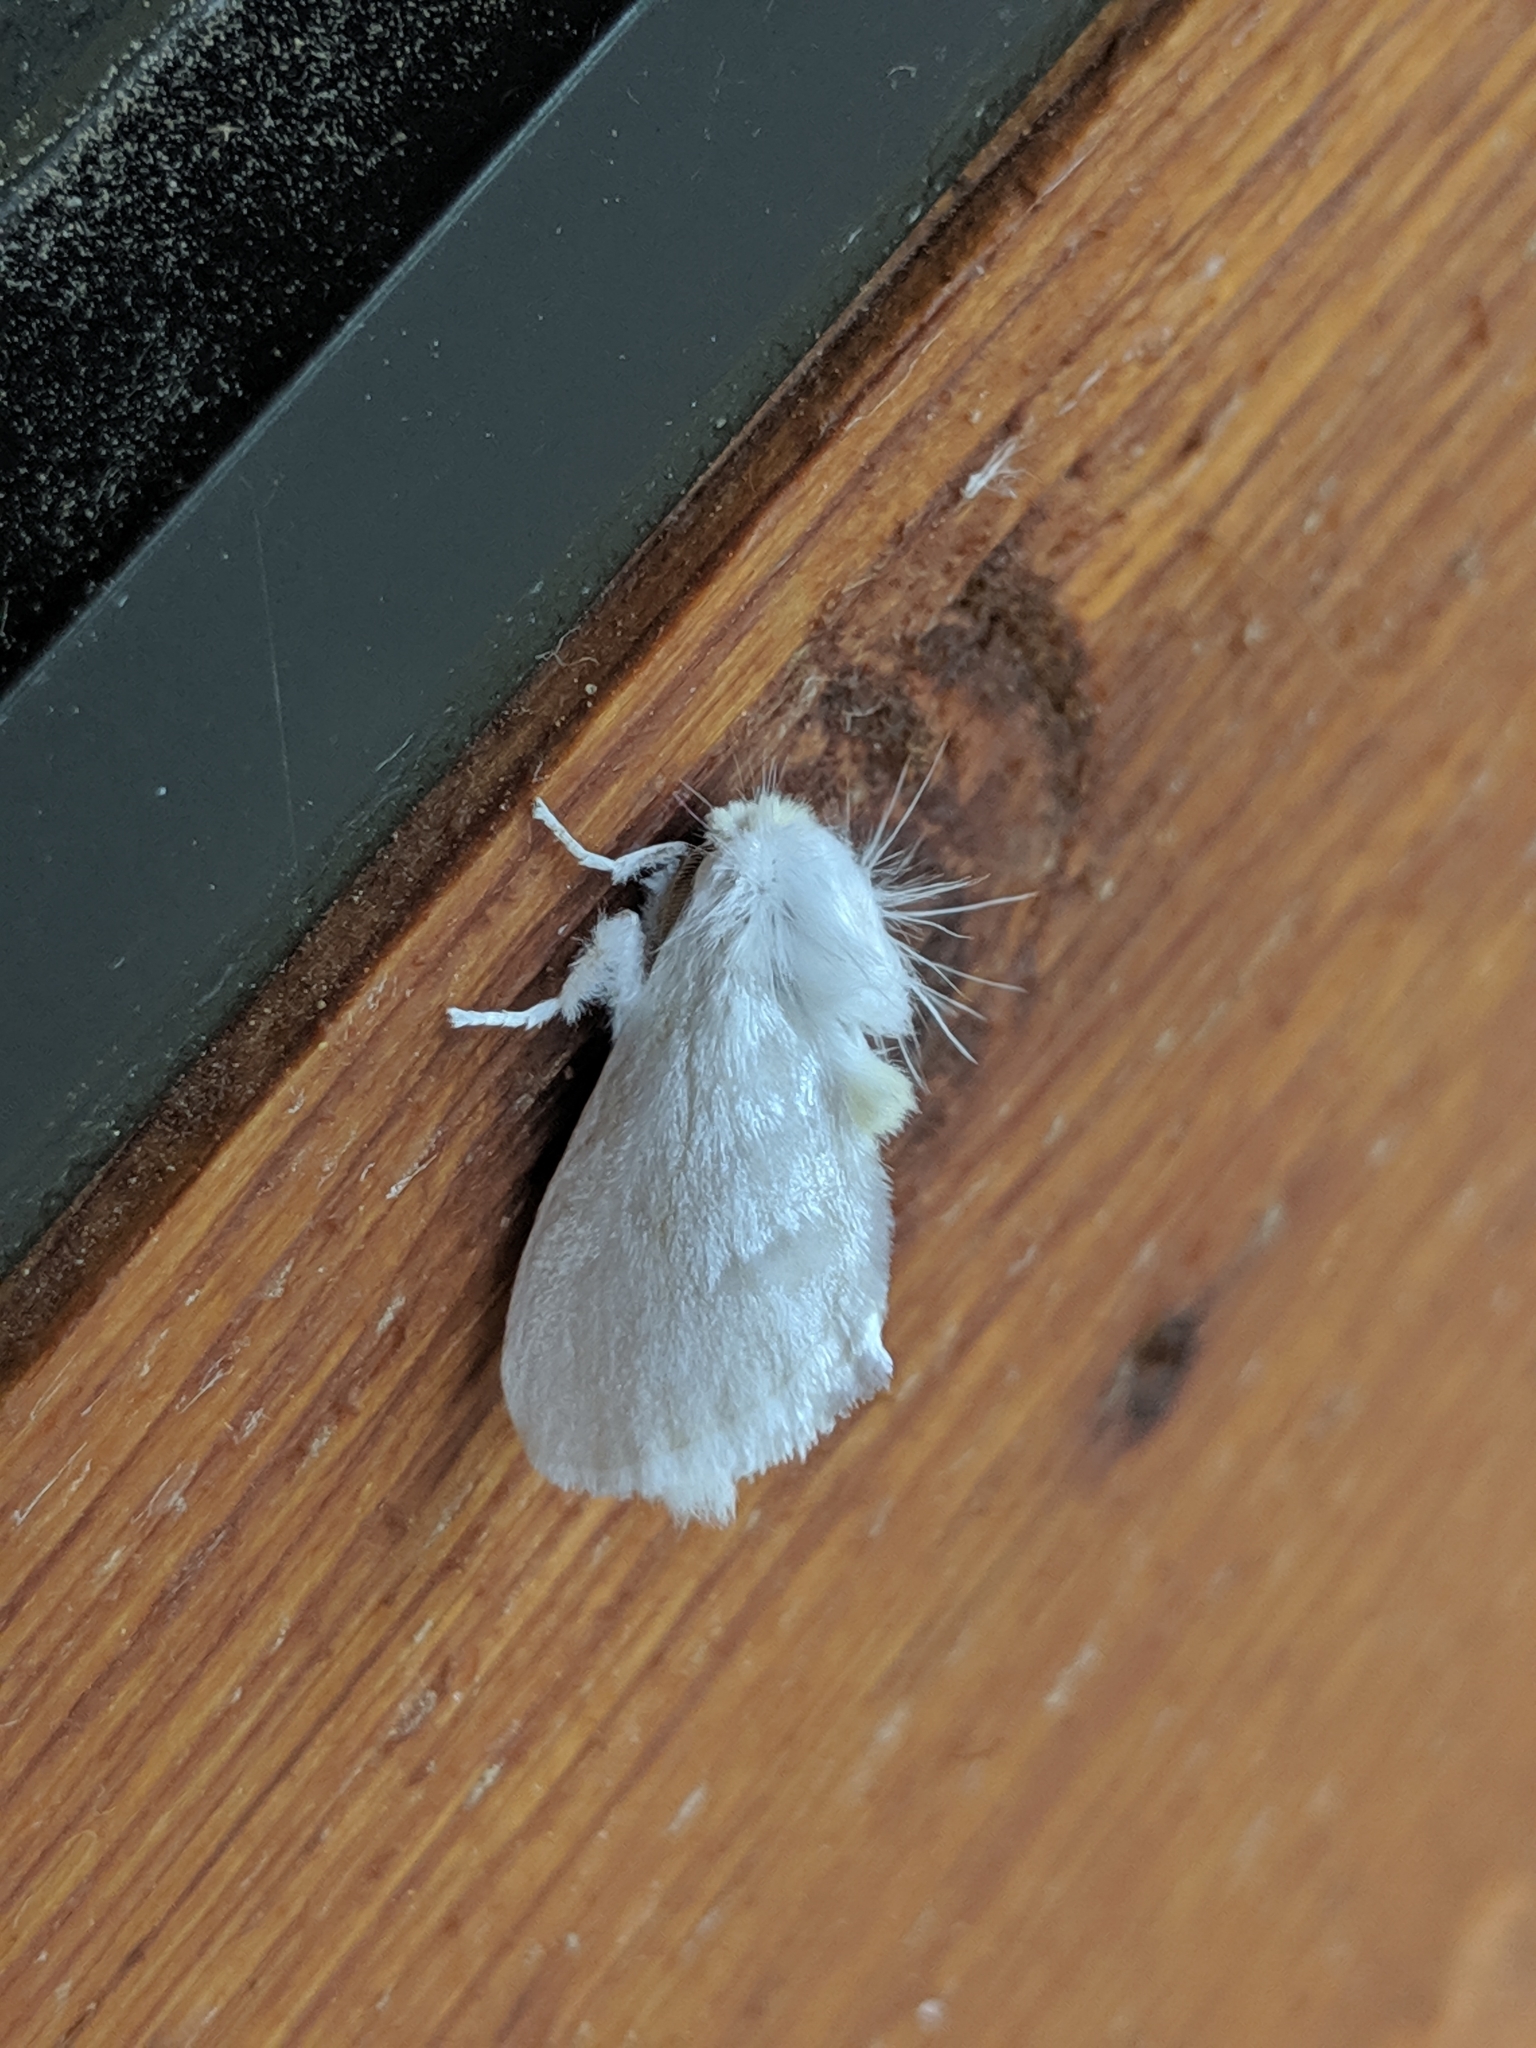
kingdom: Animalia
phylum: Arthropoda
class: Insecta
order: Lepidoptera
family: Megalopygidae
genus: Norape
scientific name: Norape cretata
